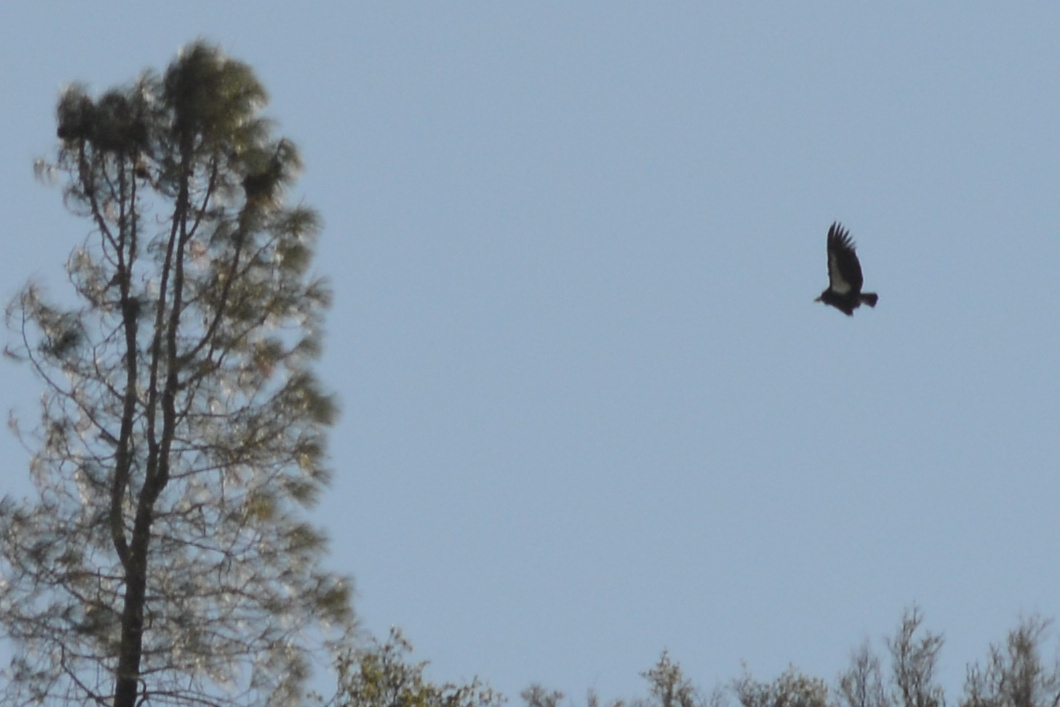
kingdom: Animalia
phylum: Chordata
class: Aves
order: Accipitriformes
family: Cathartidae
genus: Gymnogyps
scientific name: Gymnogyps californianus
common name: California condor
